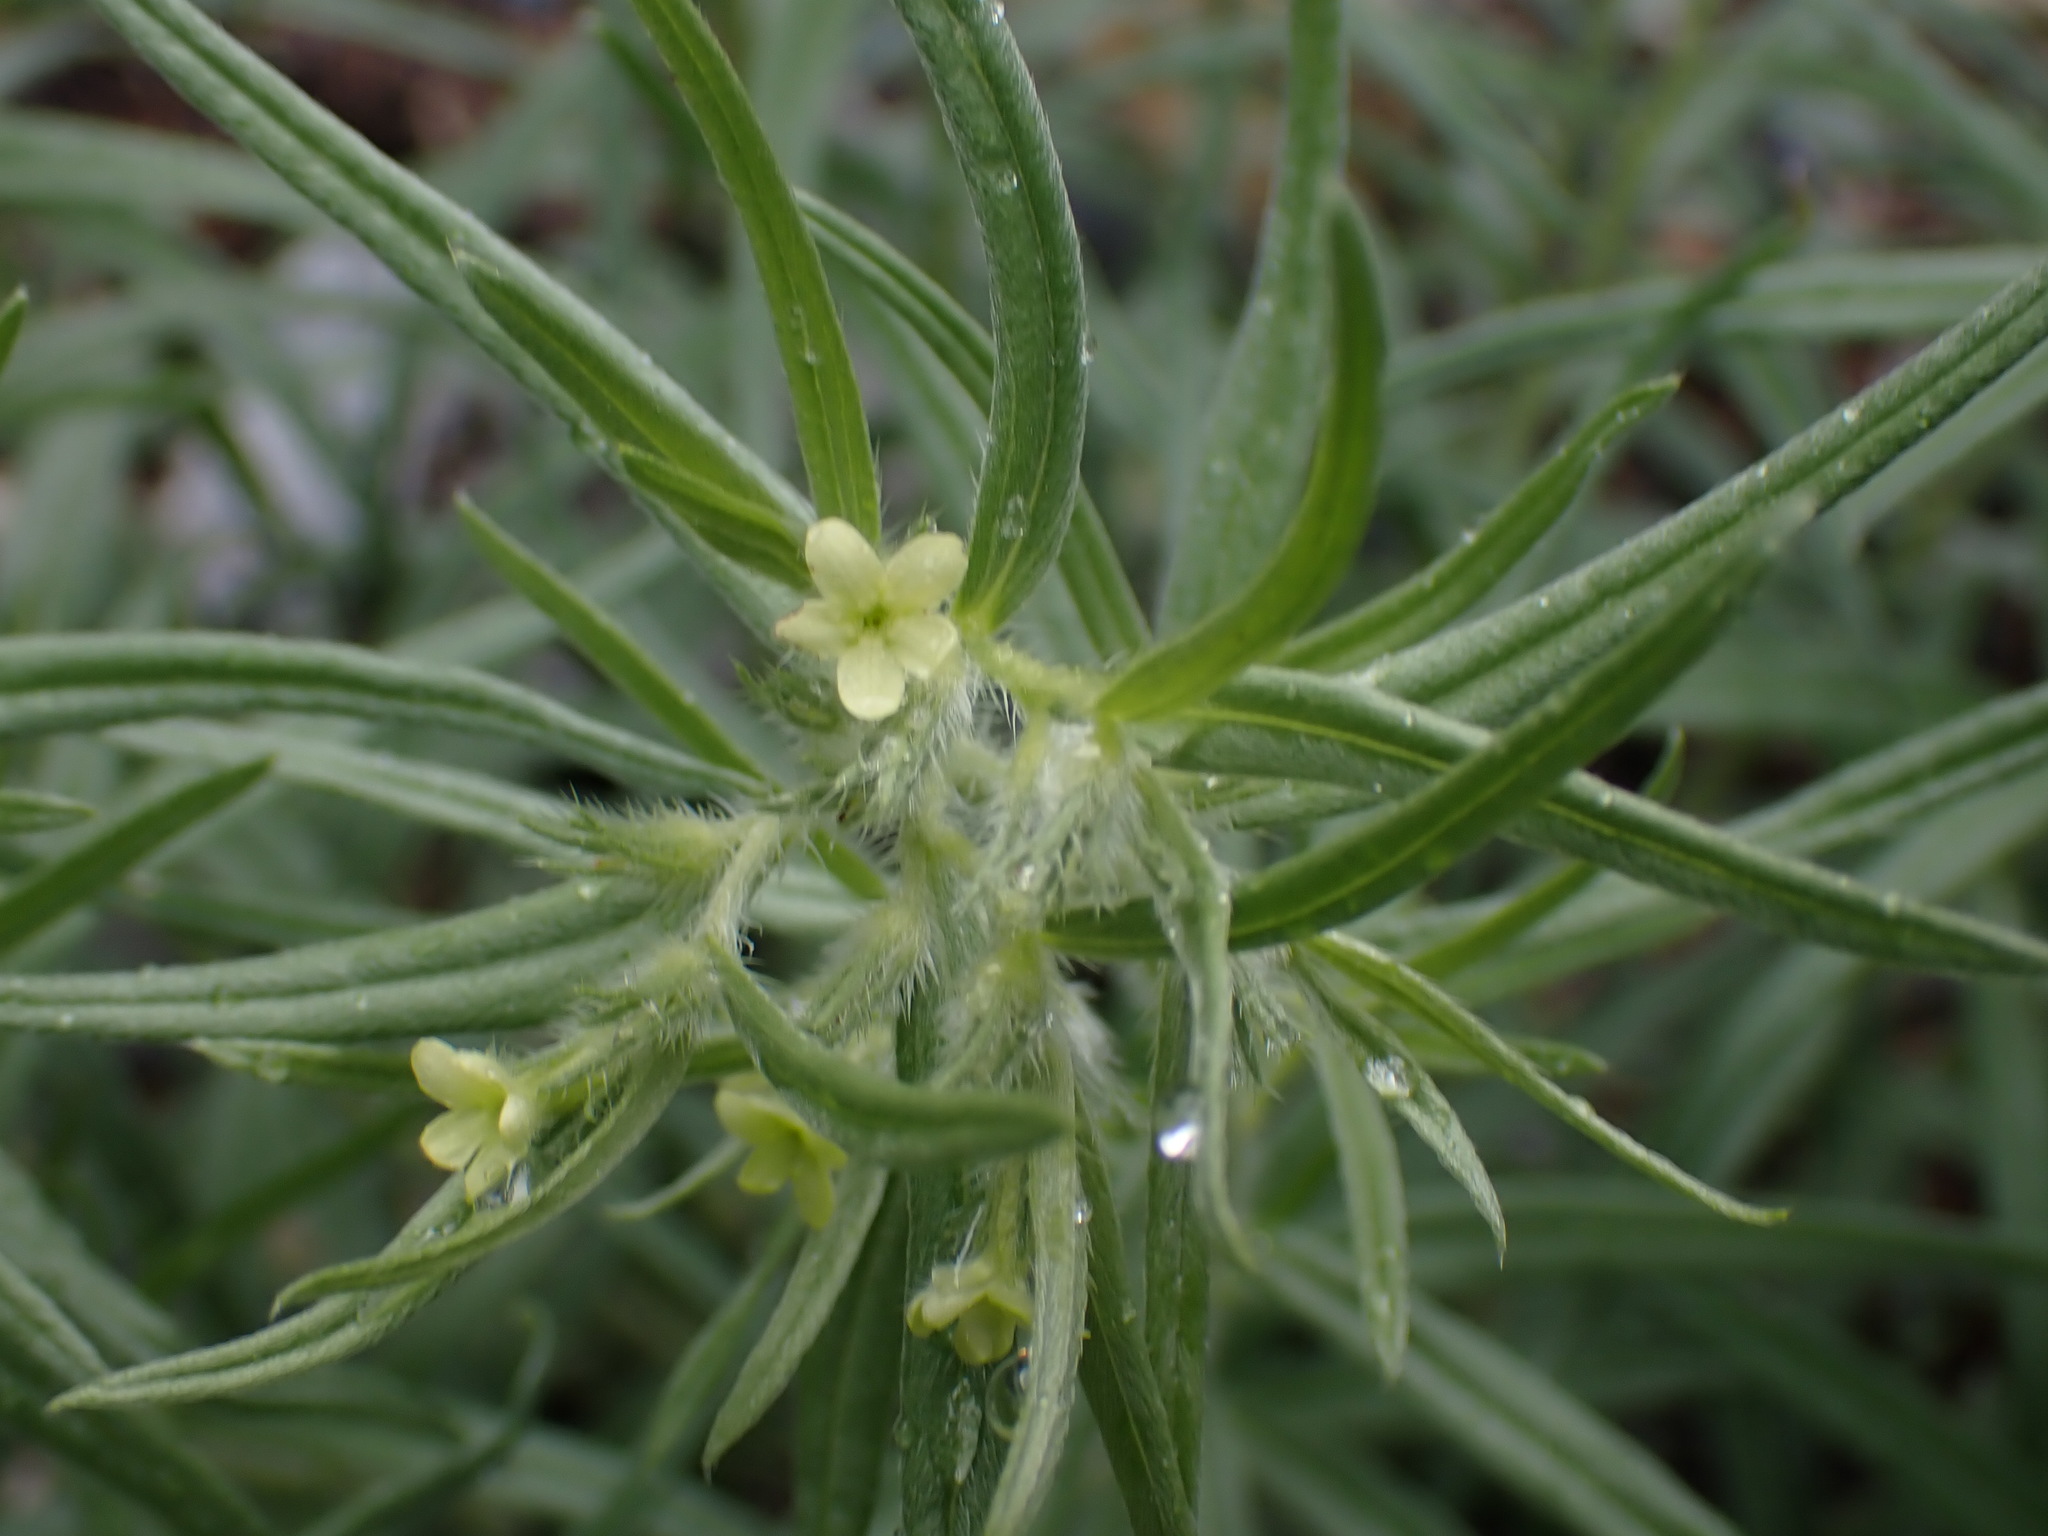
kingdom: Plantae
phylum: Tracheophyta
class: Magnoliopsida
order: Boraginales
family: Boraginaceae
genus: Lithospermum
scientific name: Lithospermum ruderale
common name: Western gromwell
